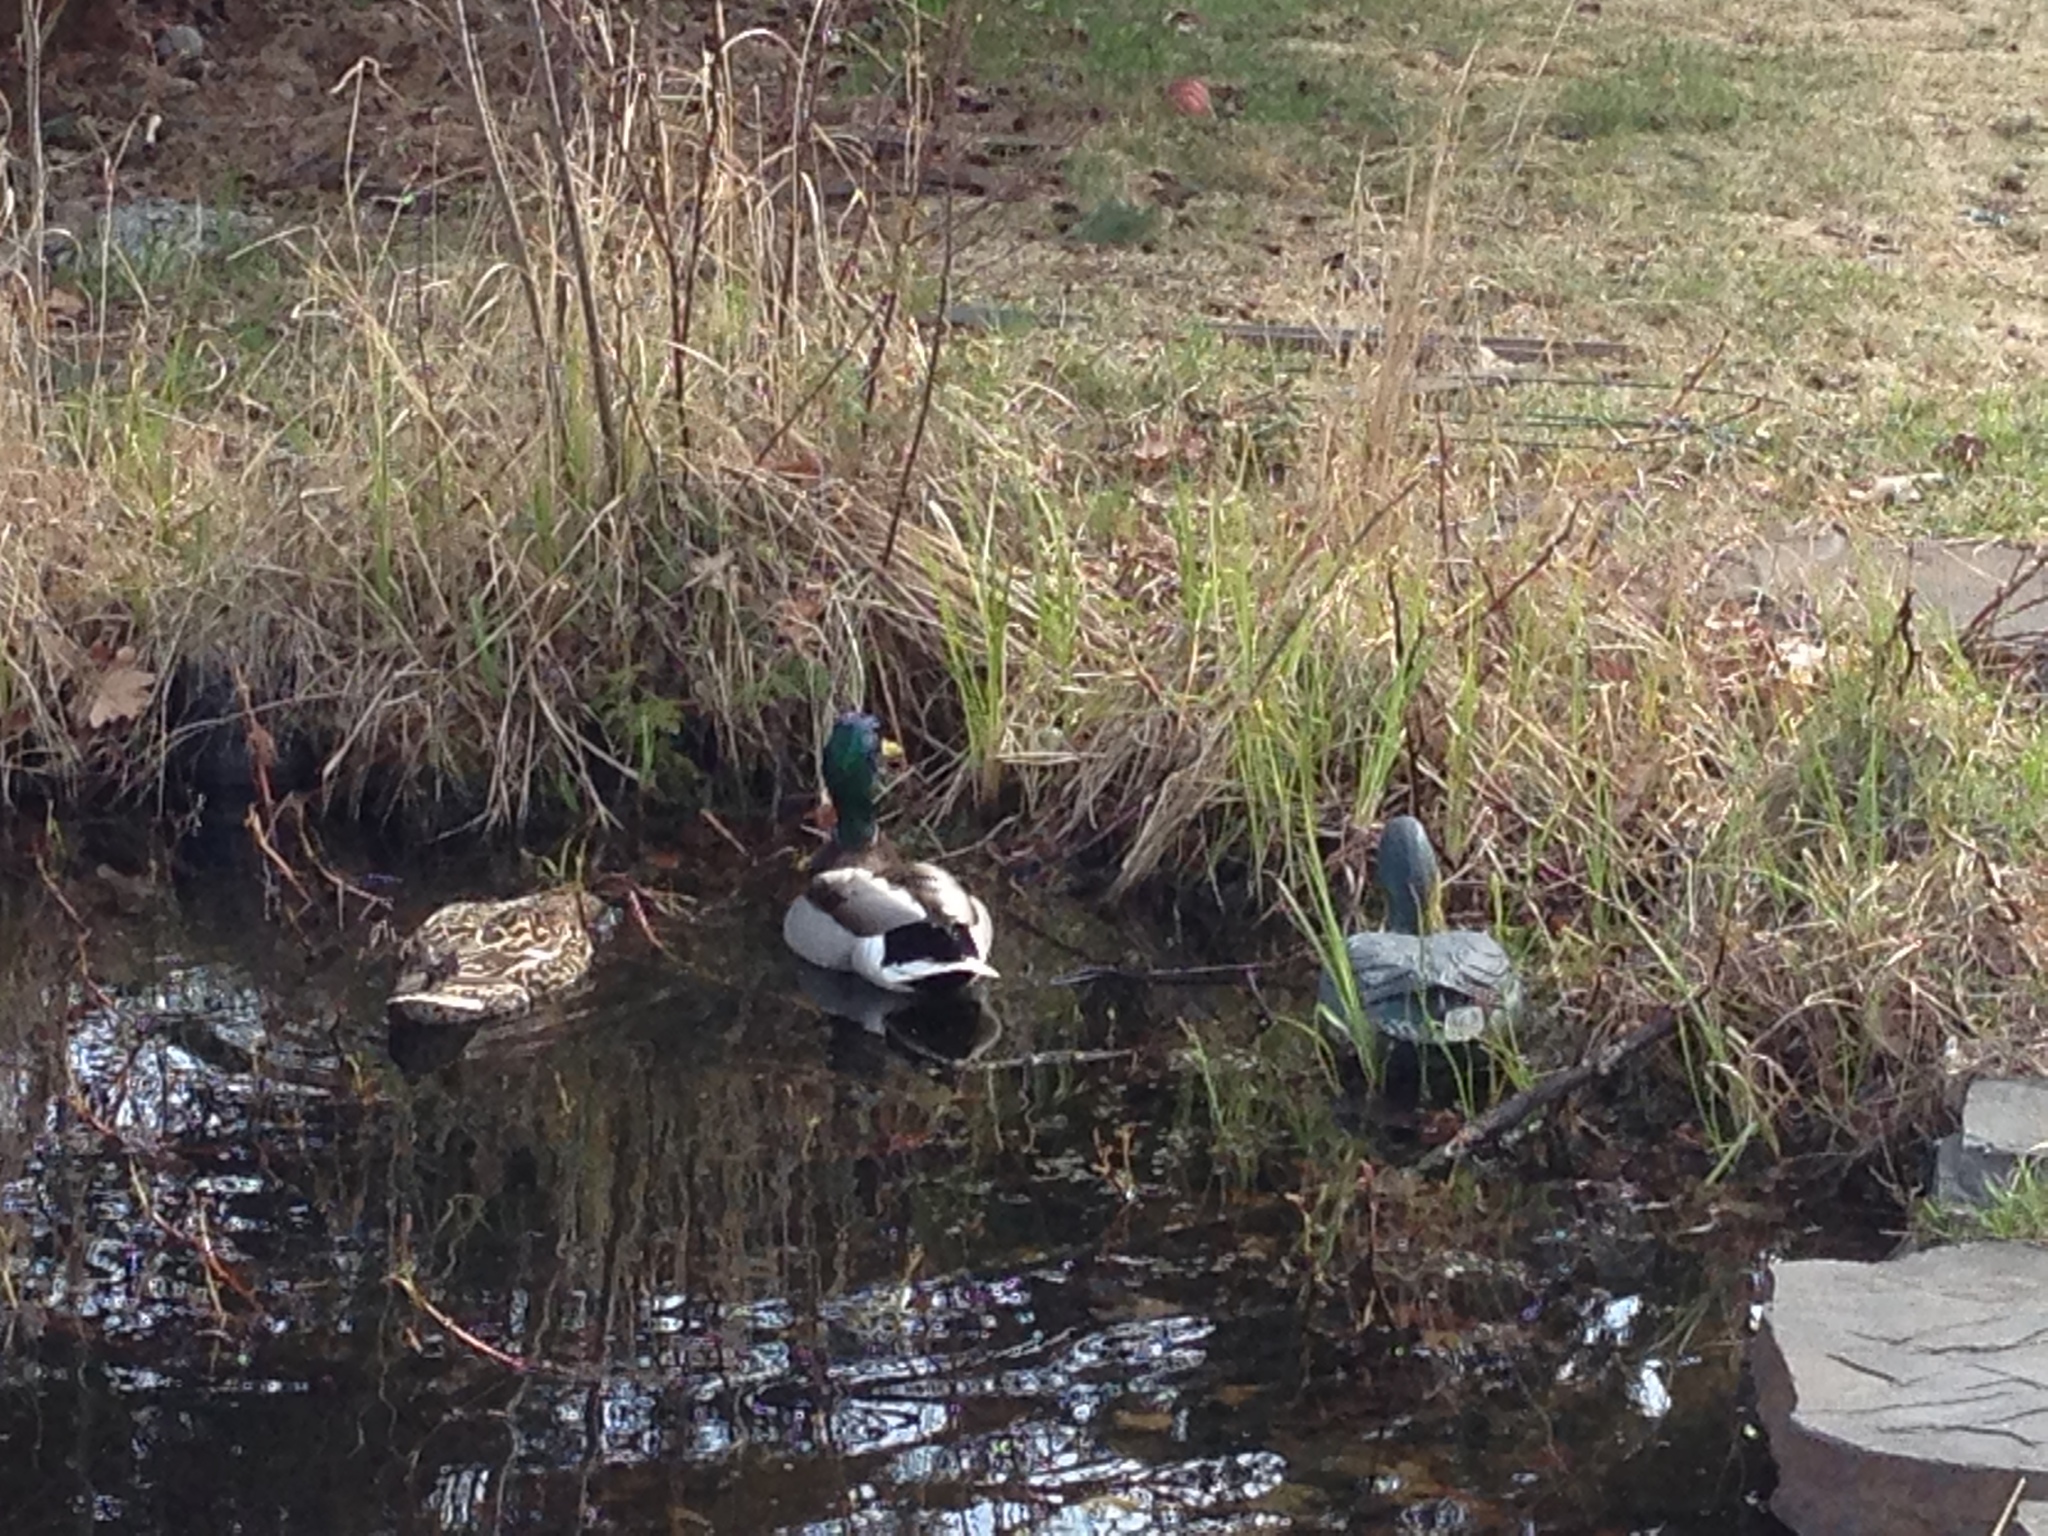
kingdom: Animalia
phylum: Chordata
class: Aves
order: Anseriformes
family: Anatidae
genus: Anas
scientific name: Anas platyrhynchos
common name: Mallard
